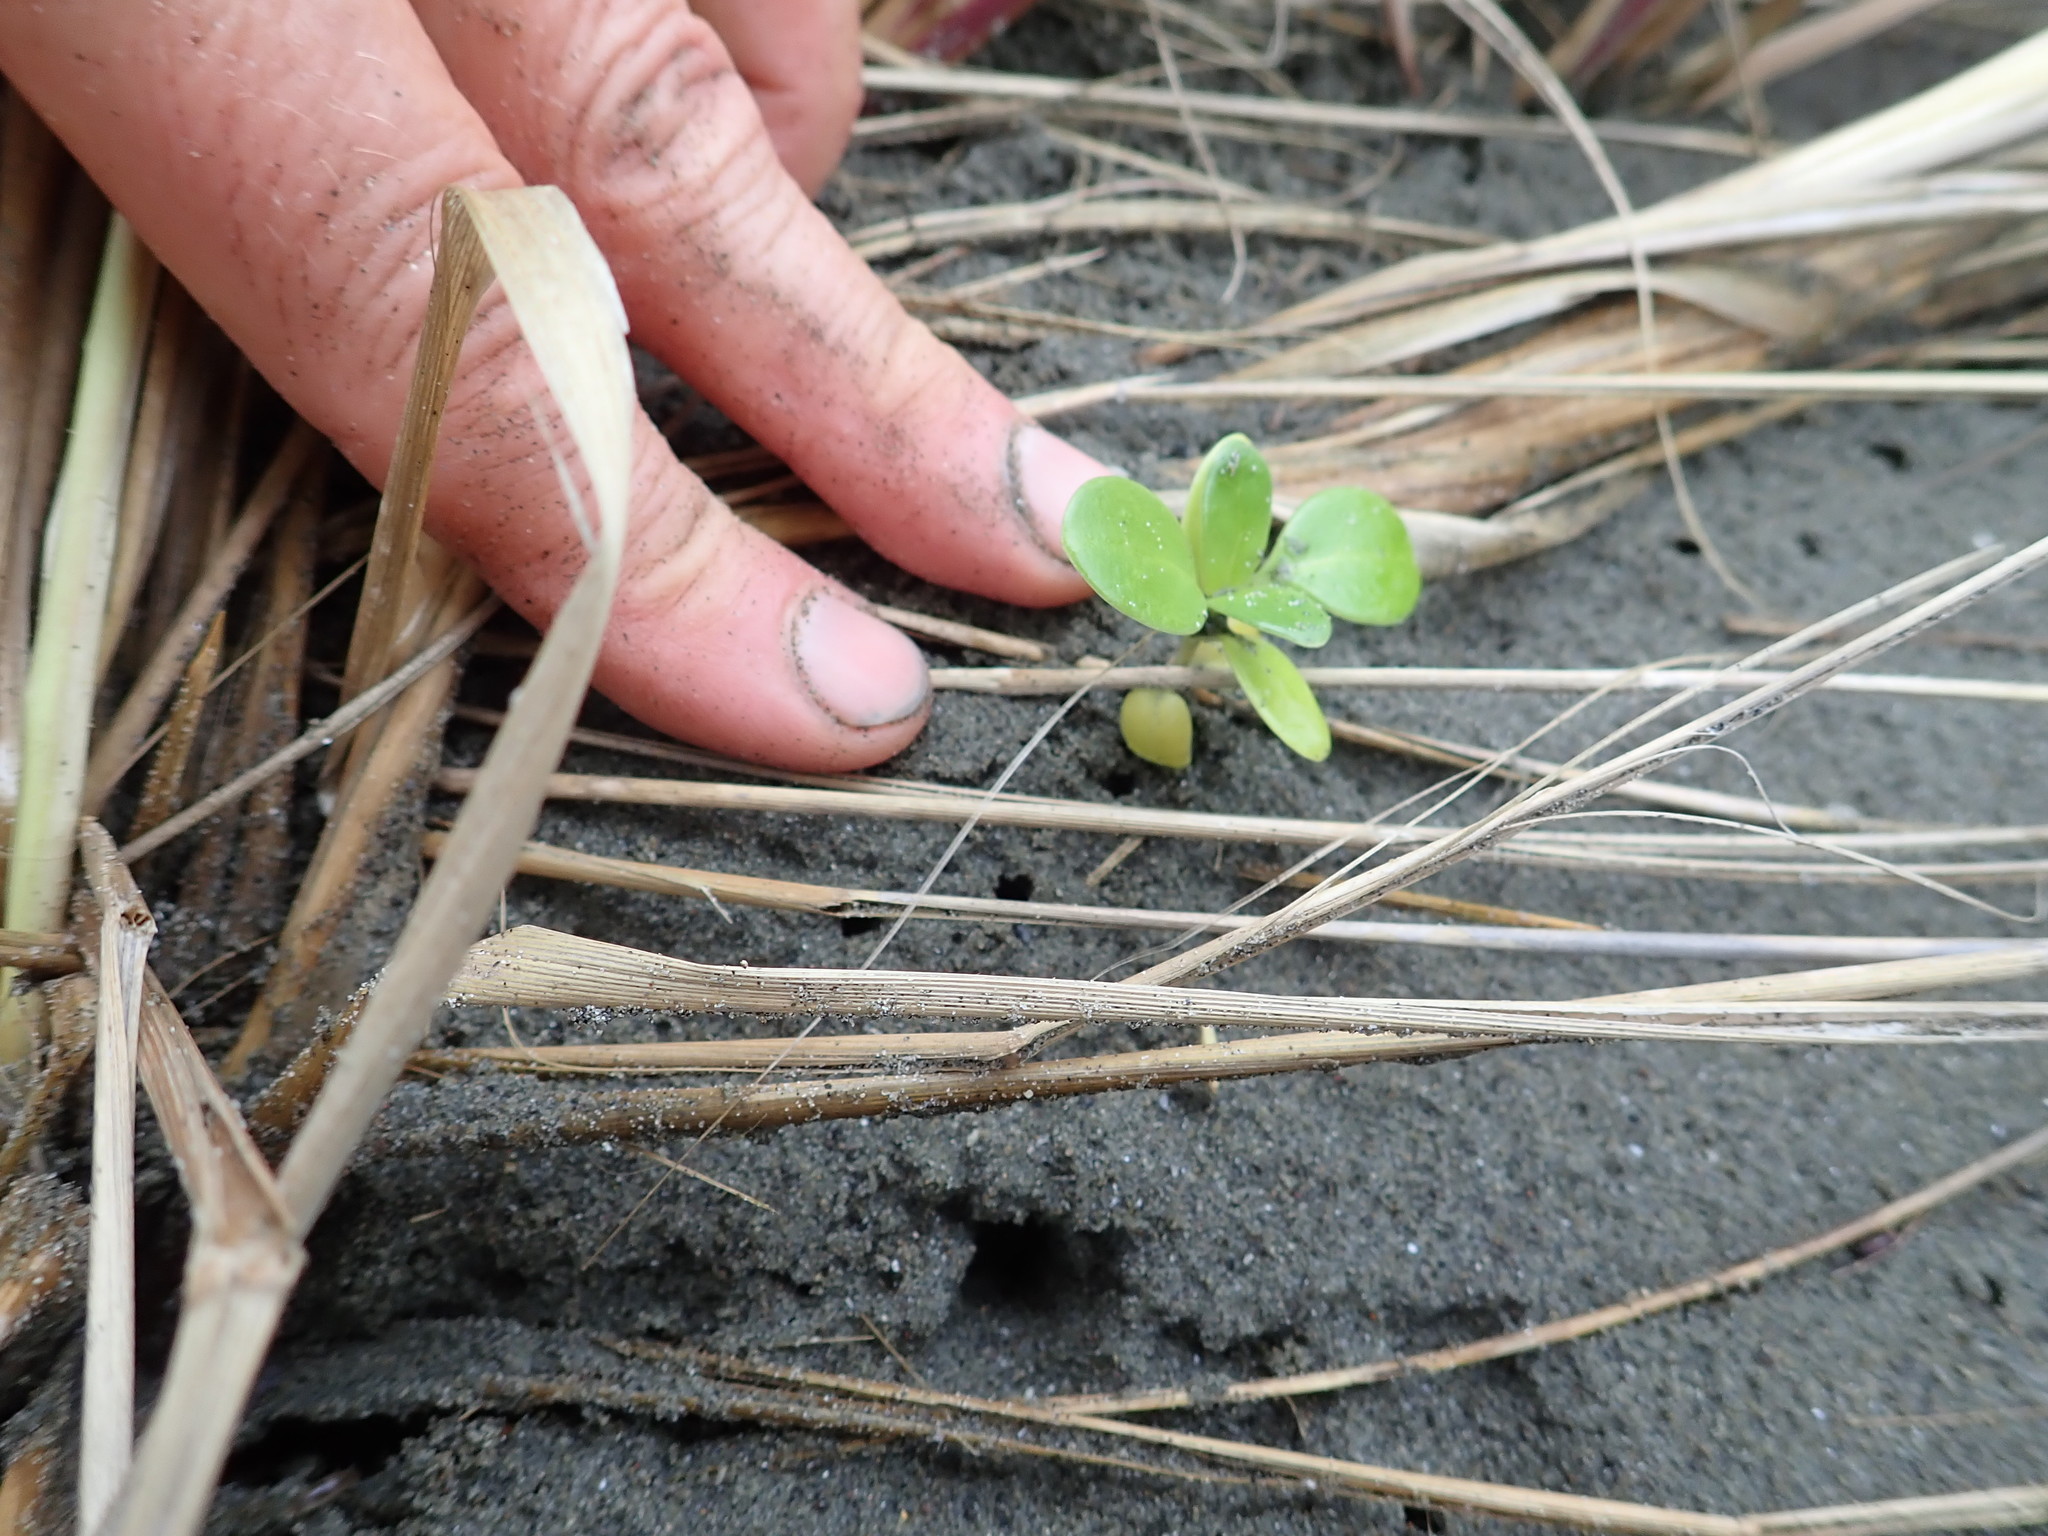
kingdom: Plantae
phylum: Tracheophyta
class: Magnoliopsida
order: Gentianales
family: Rubiaceae
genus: Coprosma
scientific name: Coprosma repens
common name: Tree bedstraw
